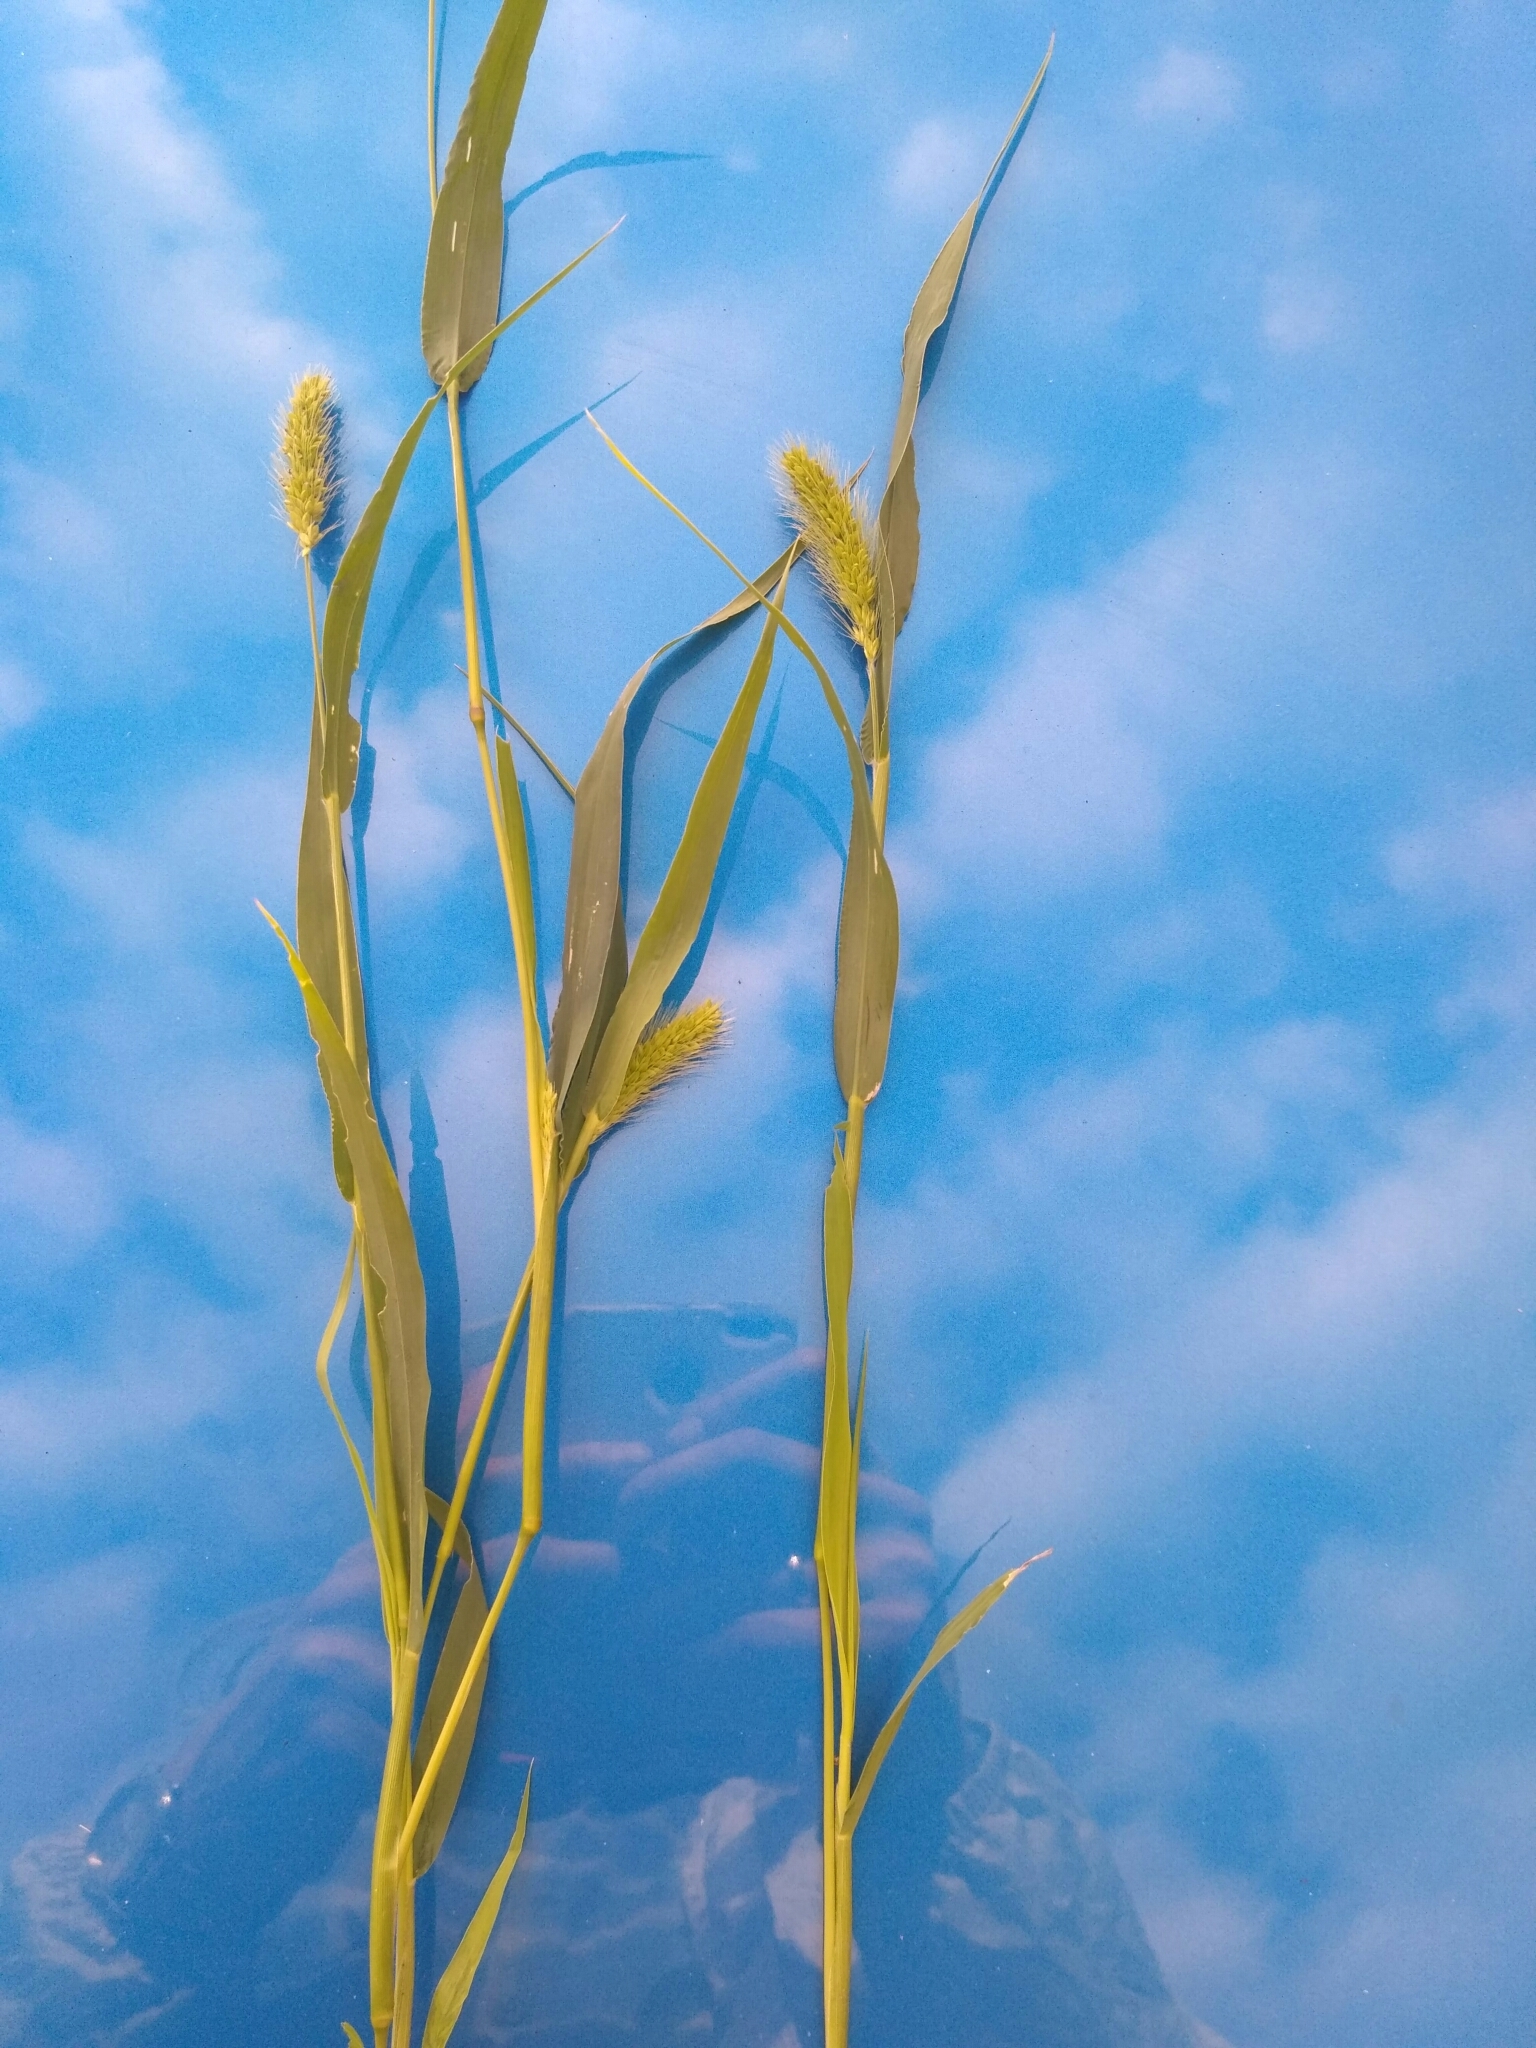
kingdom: Plantae
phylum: Tracheophyta
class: Liliopsida
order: Poales
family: Poaceae
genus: Setaria
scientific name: Setaria viridis
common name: Green bristlegrass
